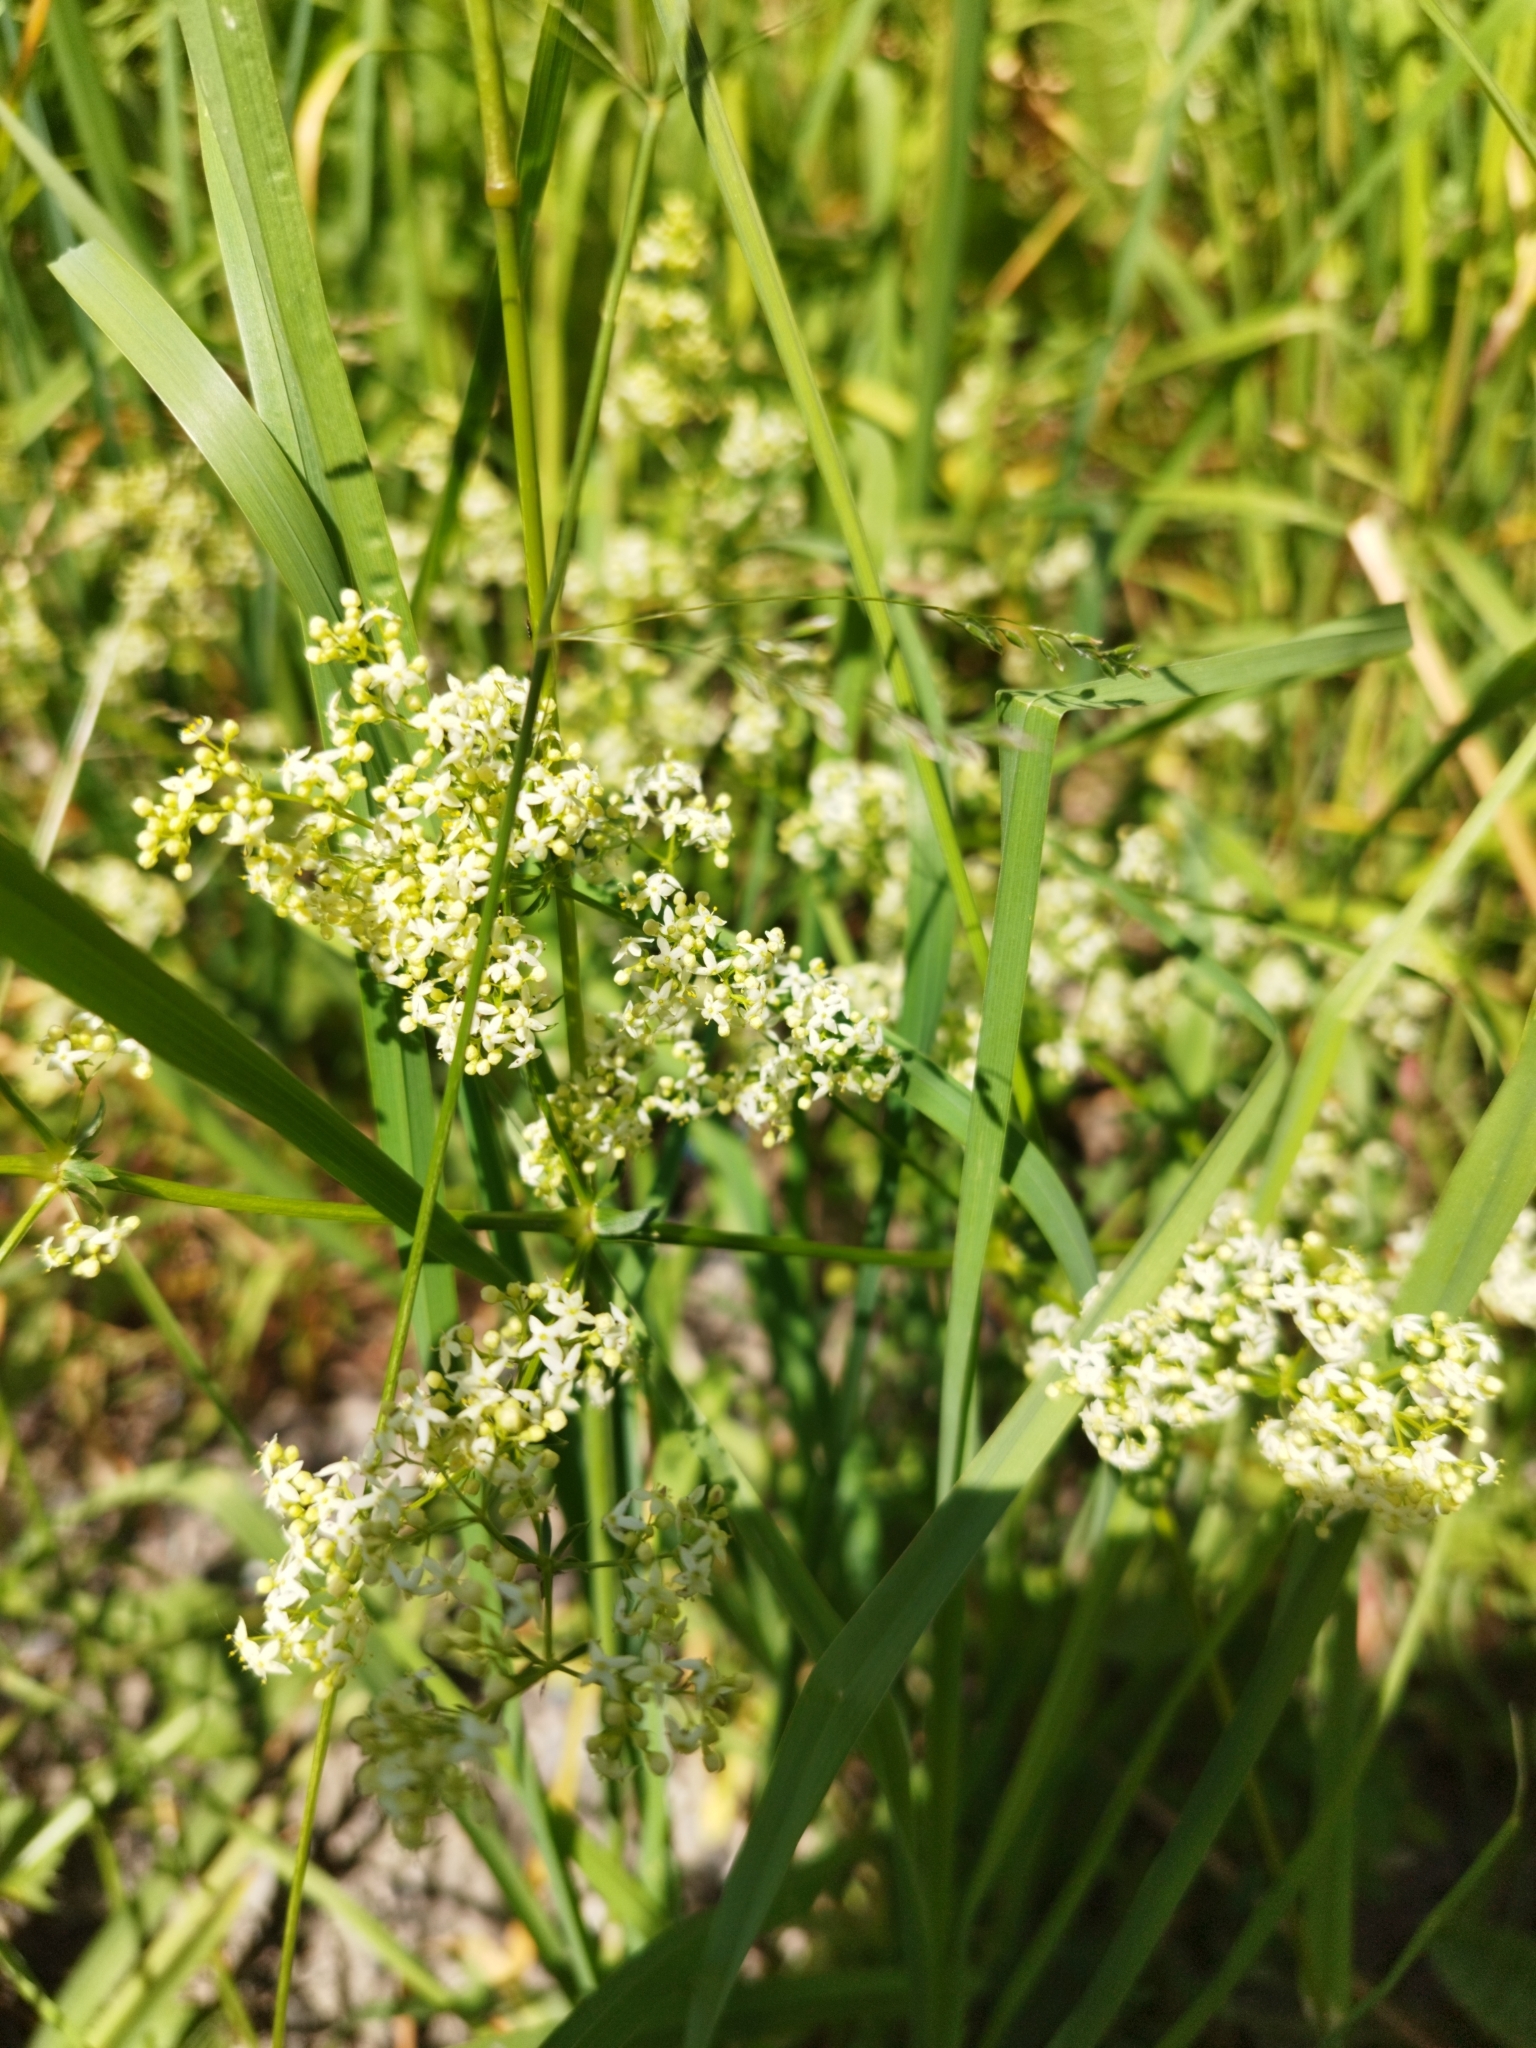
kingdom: Plantae
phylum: Tracheophyta
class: Magnoliopsida
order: Gentianales
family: Rubiaceae
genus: Galium
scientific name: Galium mollugo
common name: Hedge bedstraw
